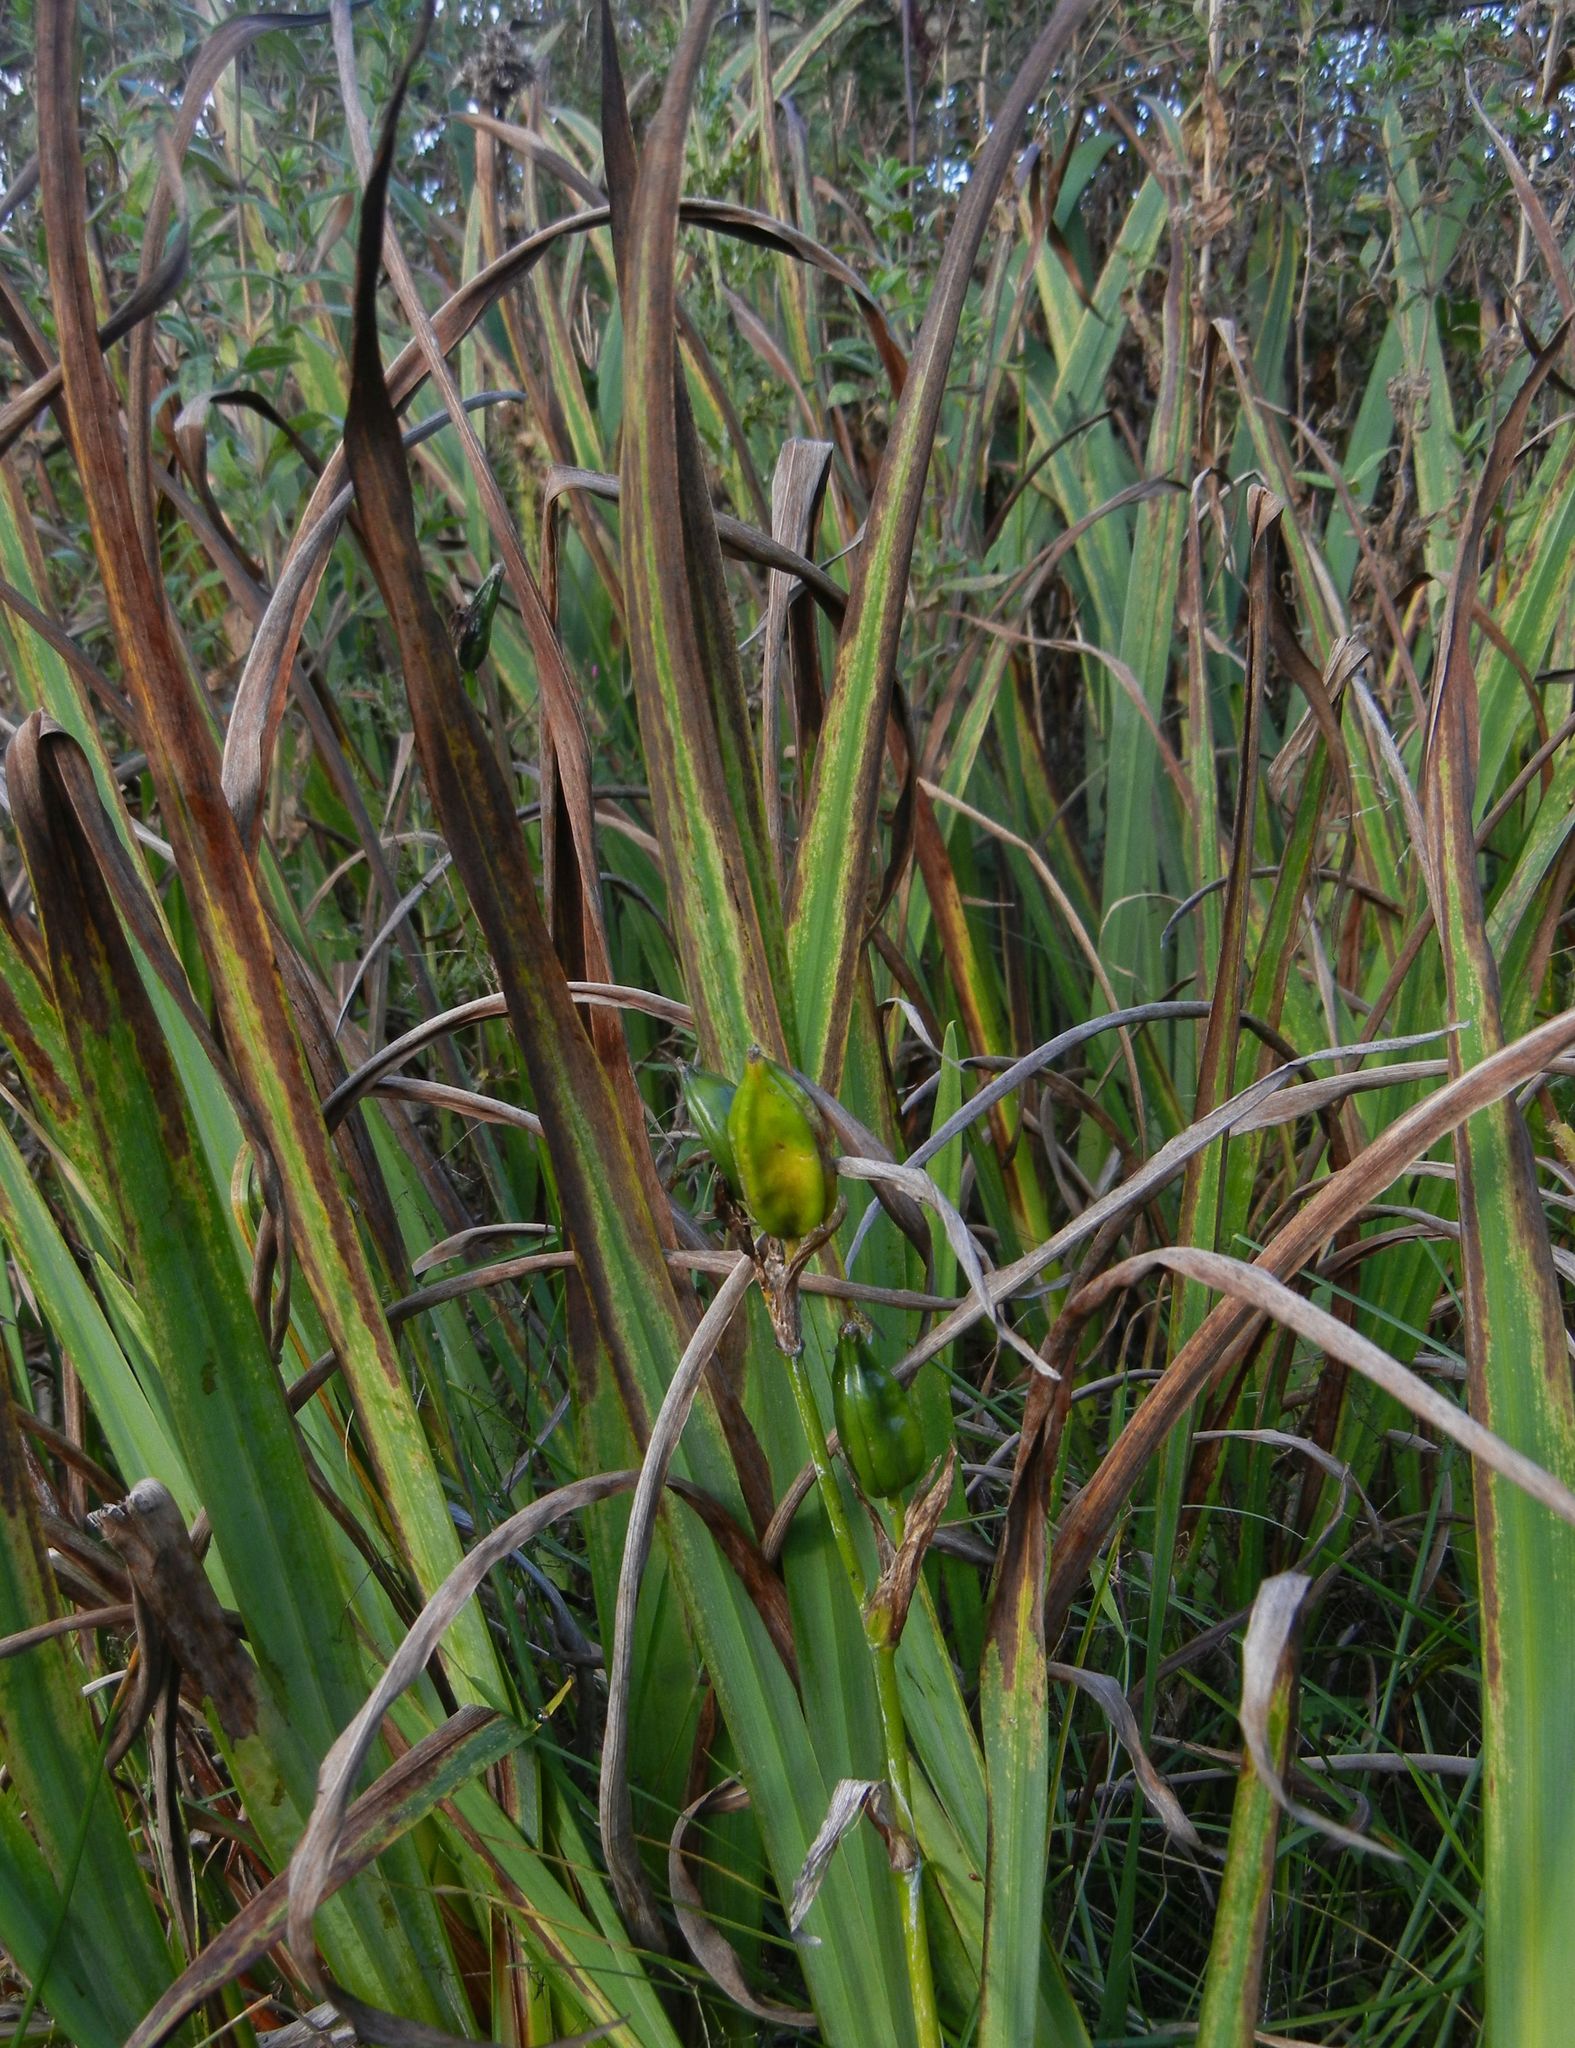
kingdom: Plantae
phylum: Tracheophyta
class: Liliopsida
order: Asparagales
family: Iridaceae
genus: Iris
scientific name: Iris pseudacorus
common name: Yellow flag
